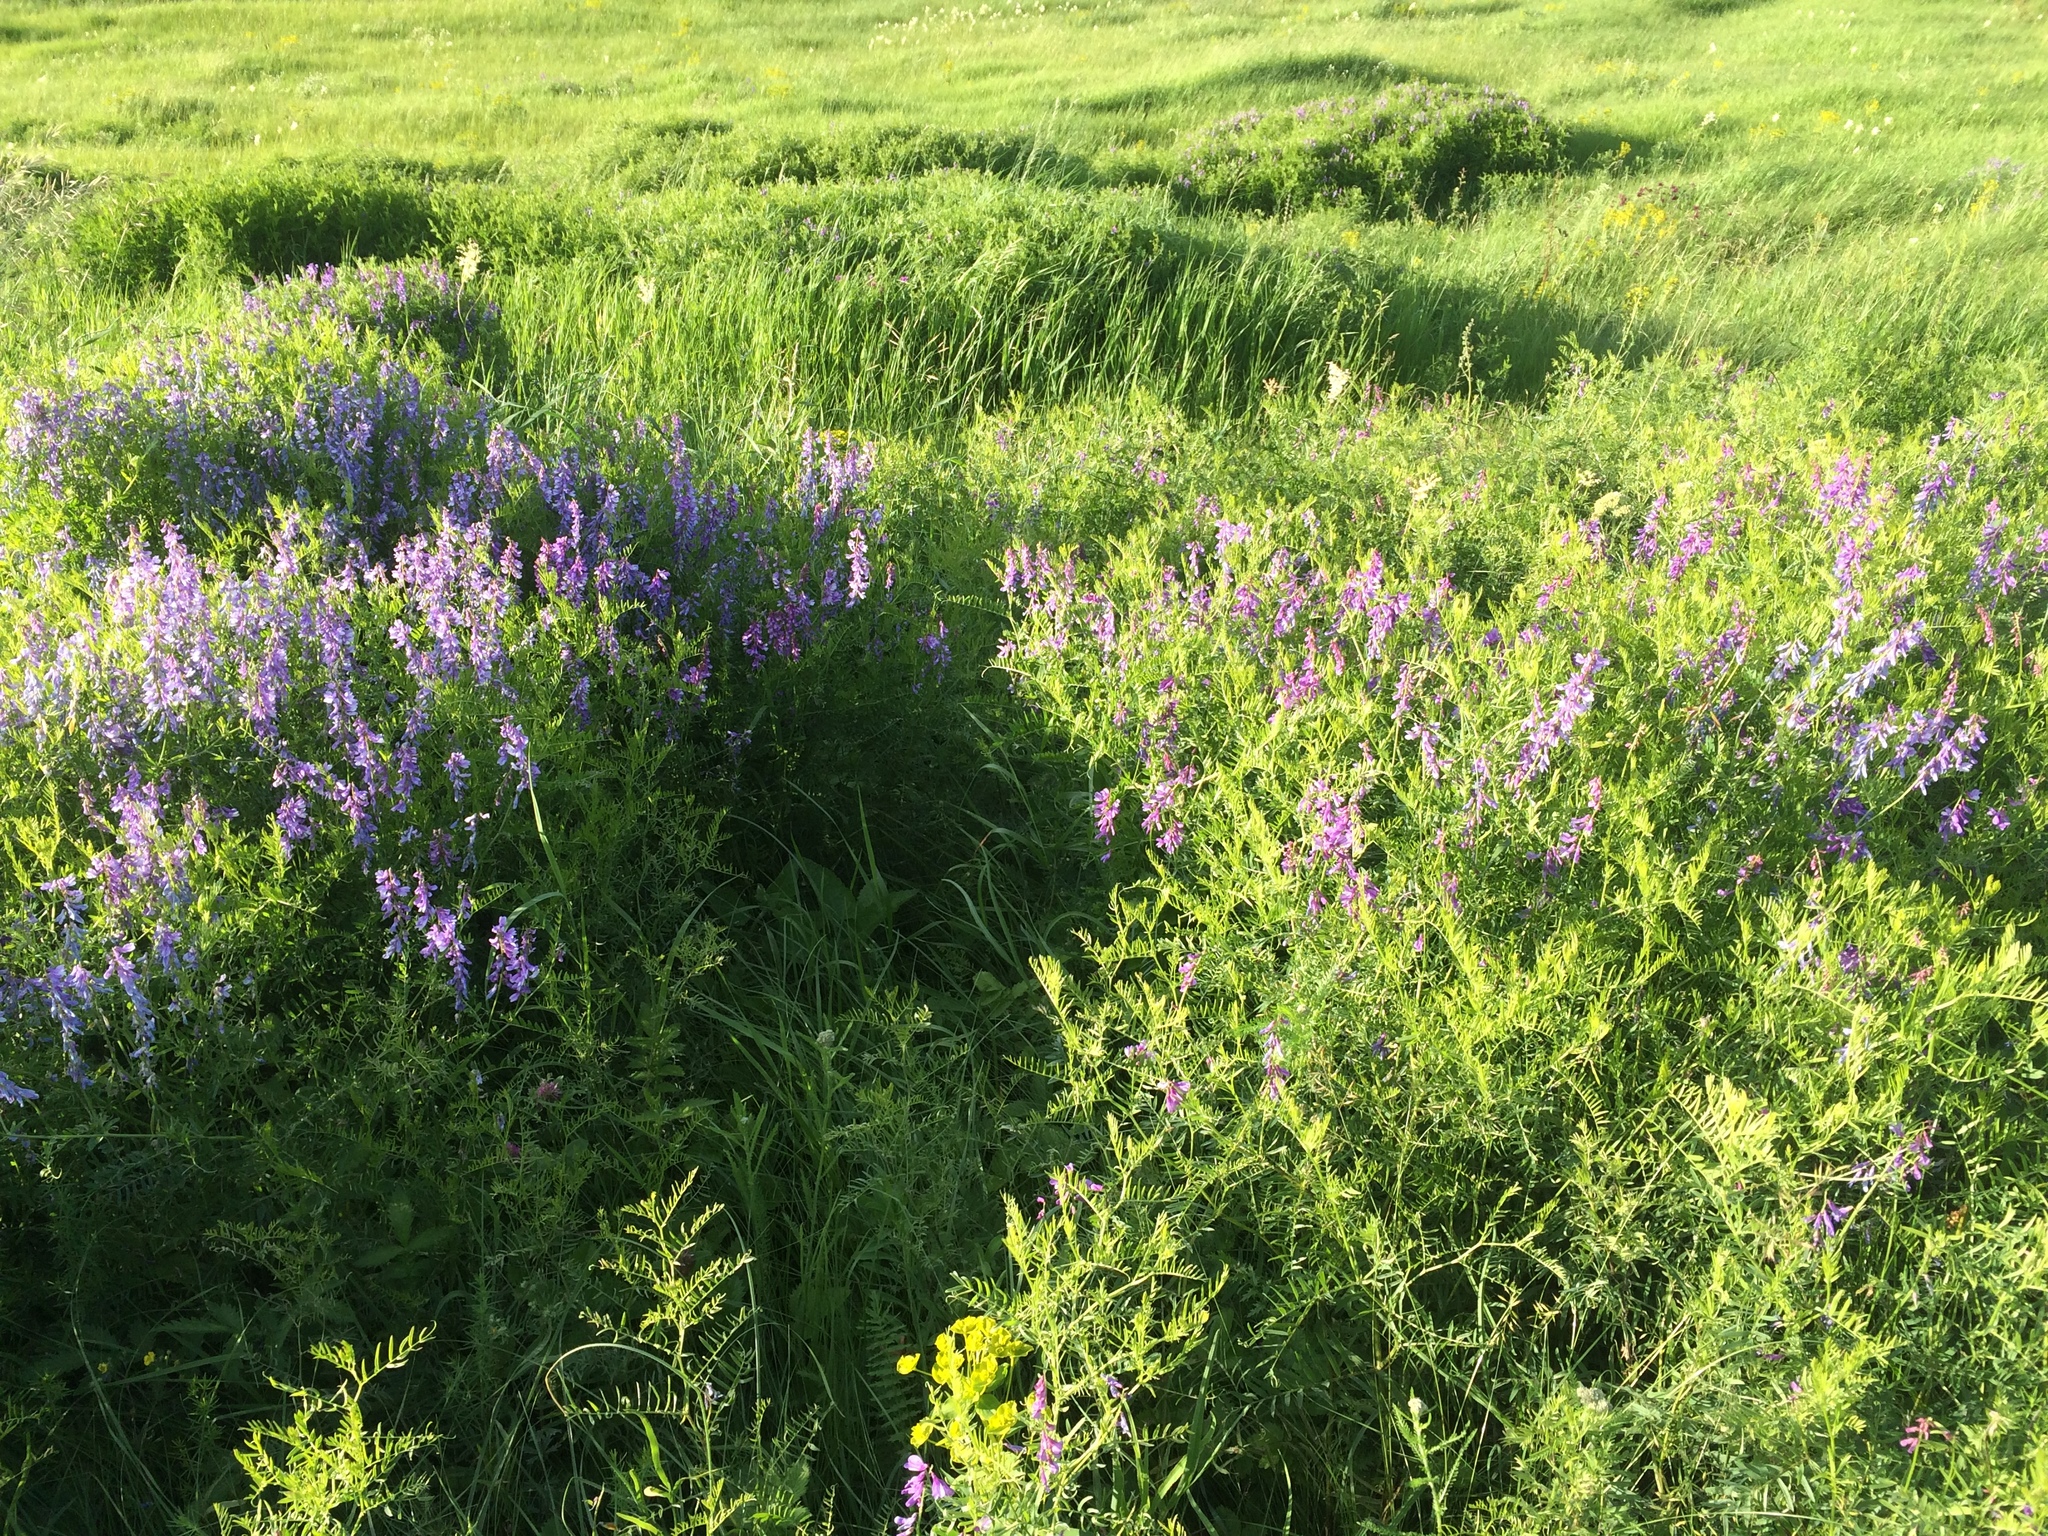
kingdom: Plantae
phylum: Tracheophyta
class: Magnoliopsida
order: Fabales
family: Fabaceae
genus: Vicia
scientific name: Vicia tenuifolia
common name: Fine-leaved vetch
